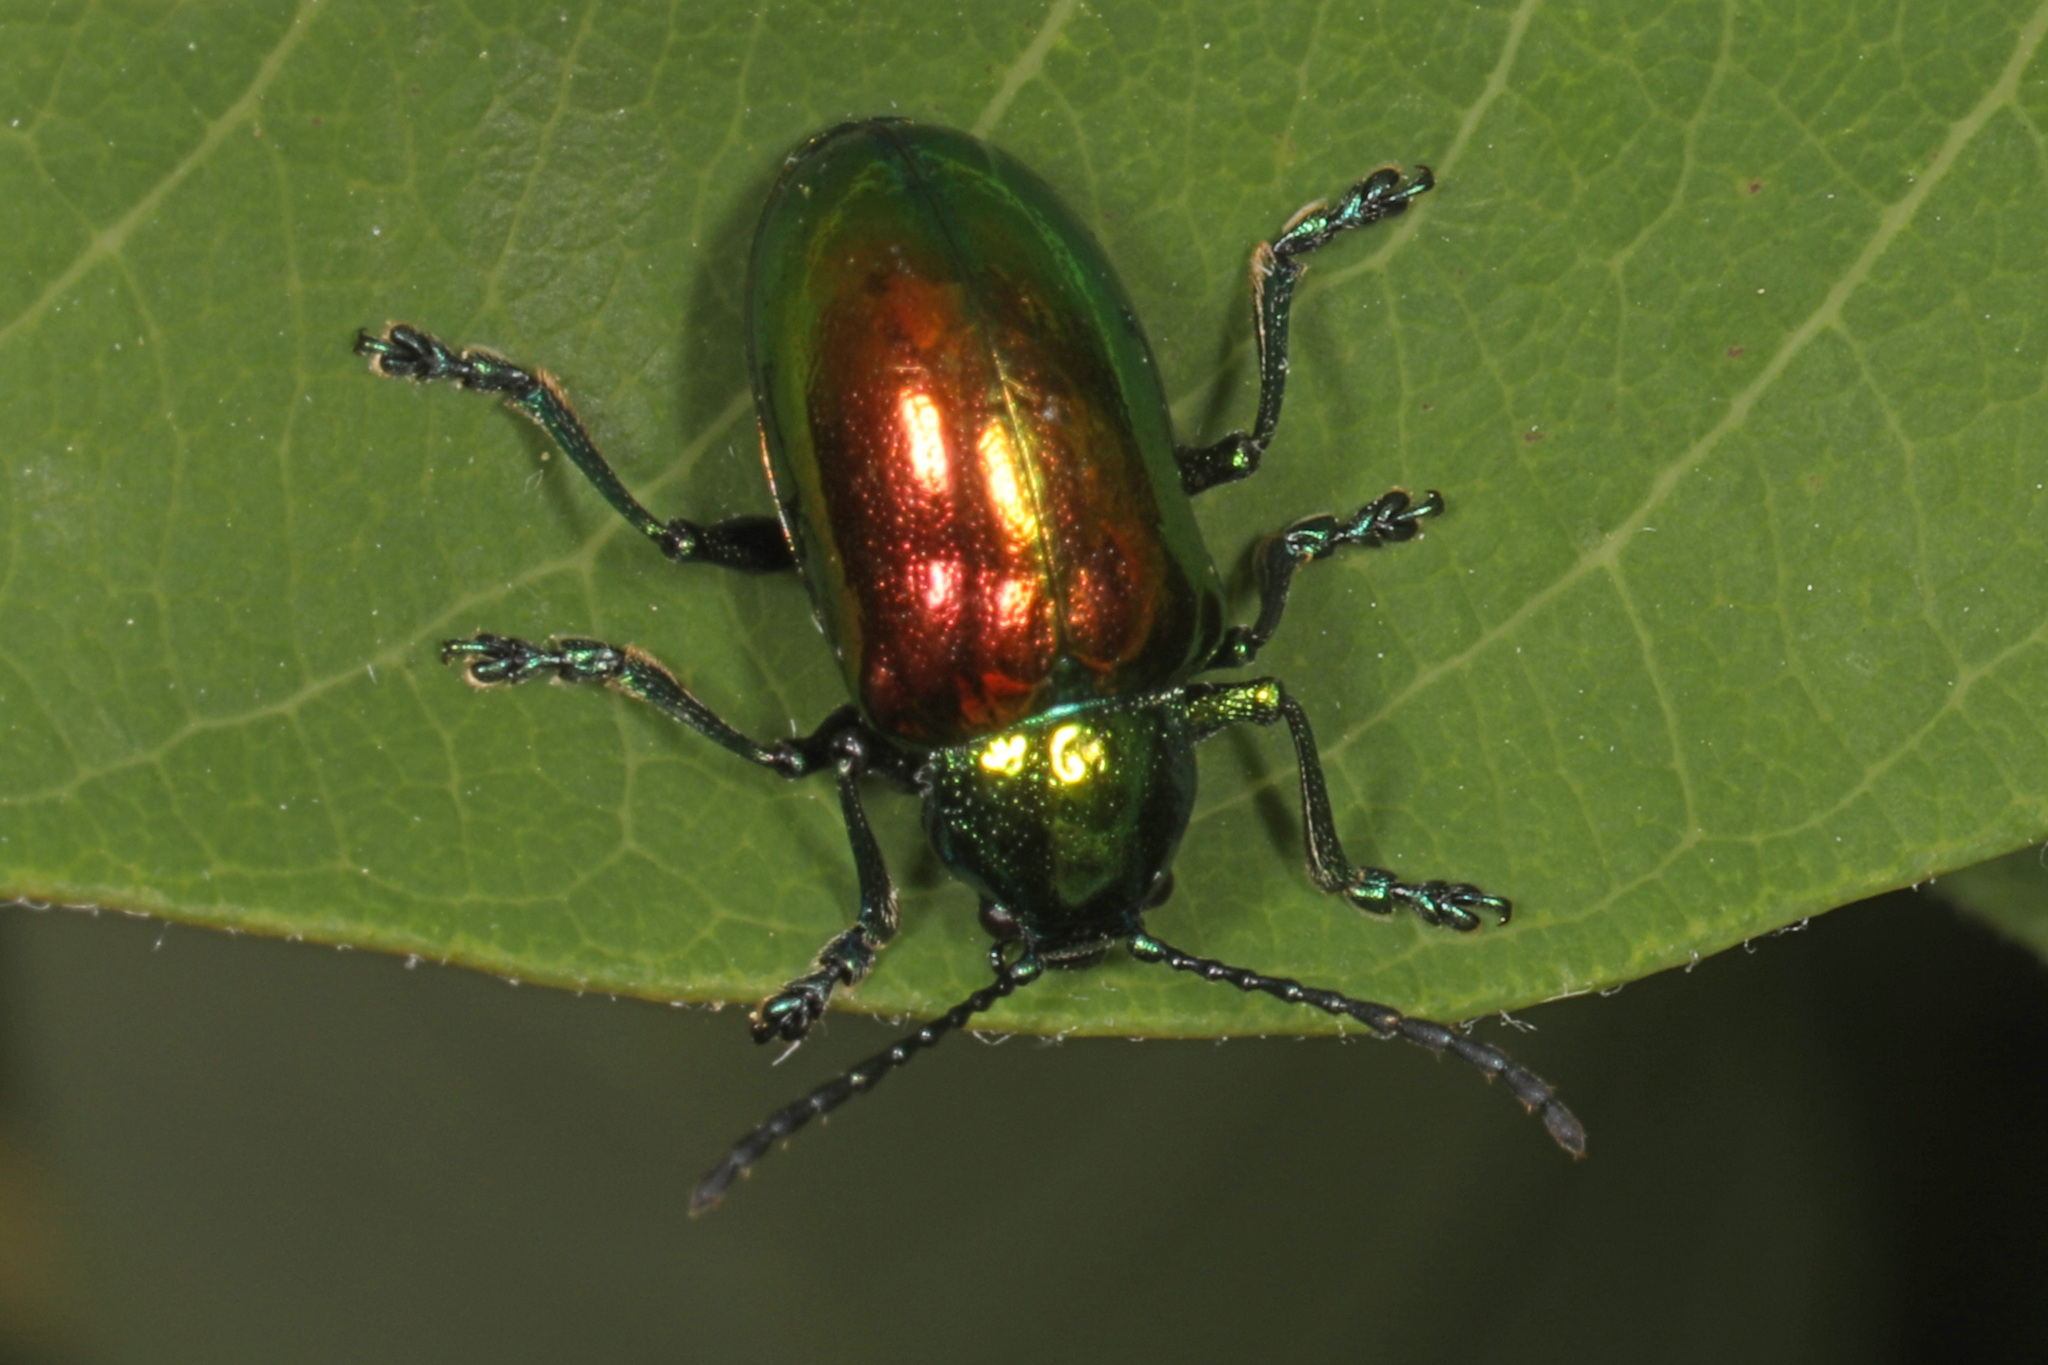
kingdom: Animalia
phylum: Arthropoda
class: Insecta
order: Coleoptera
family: Chrysomelidae
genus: Chrysochus
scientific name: Chrysochus auratus
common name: Dogbane leaf beetle
